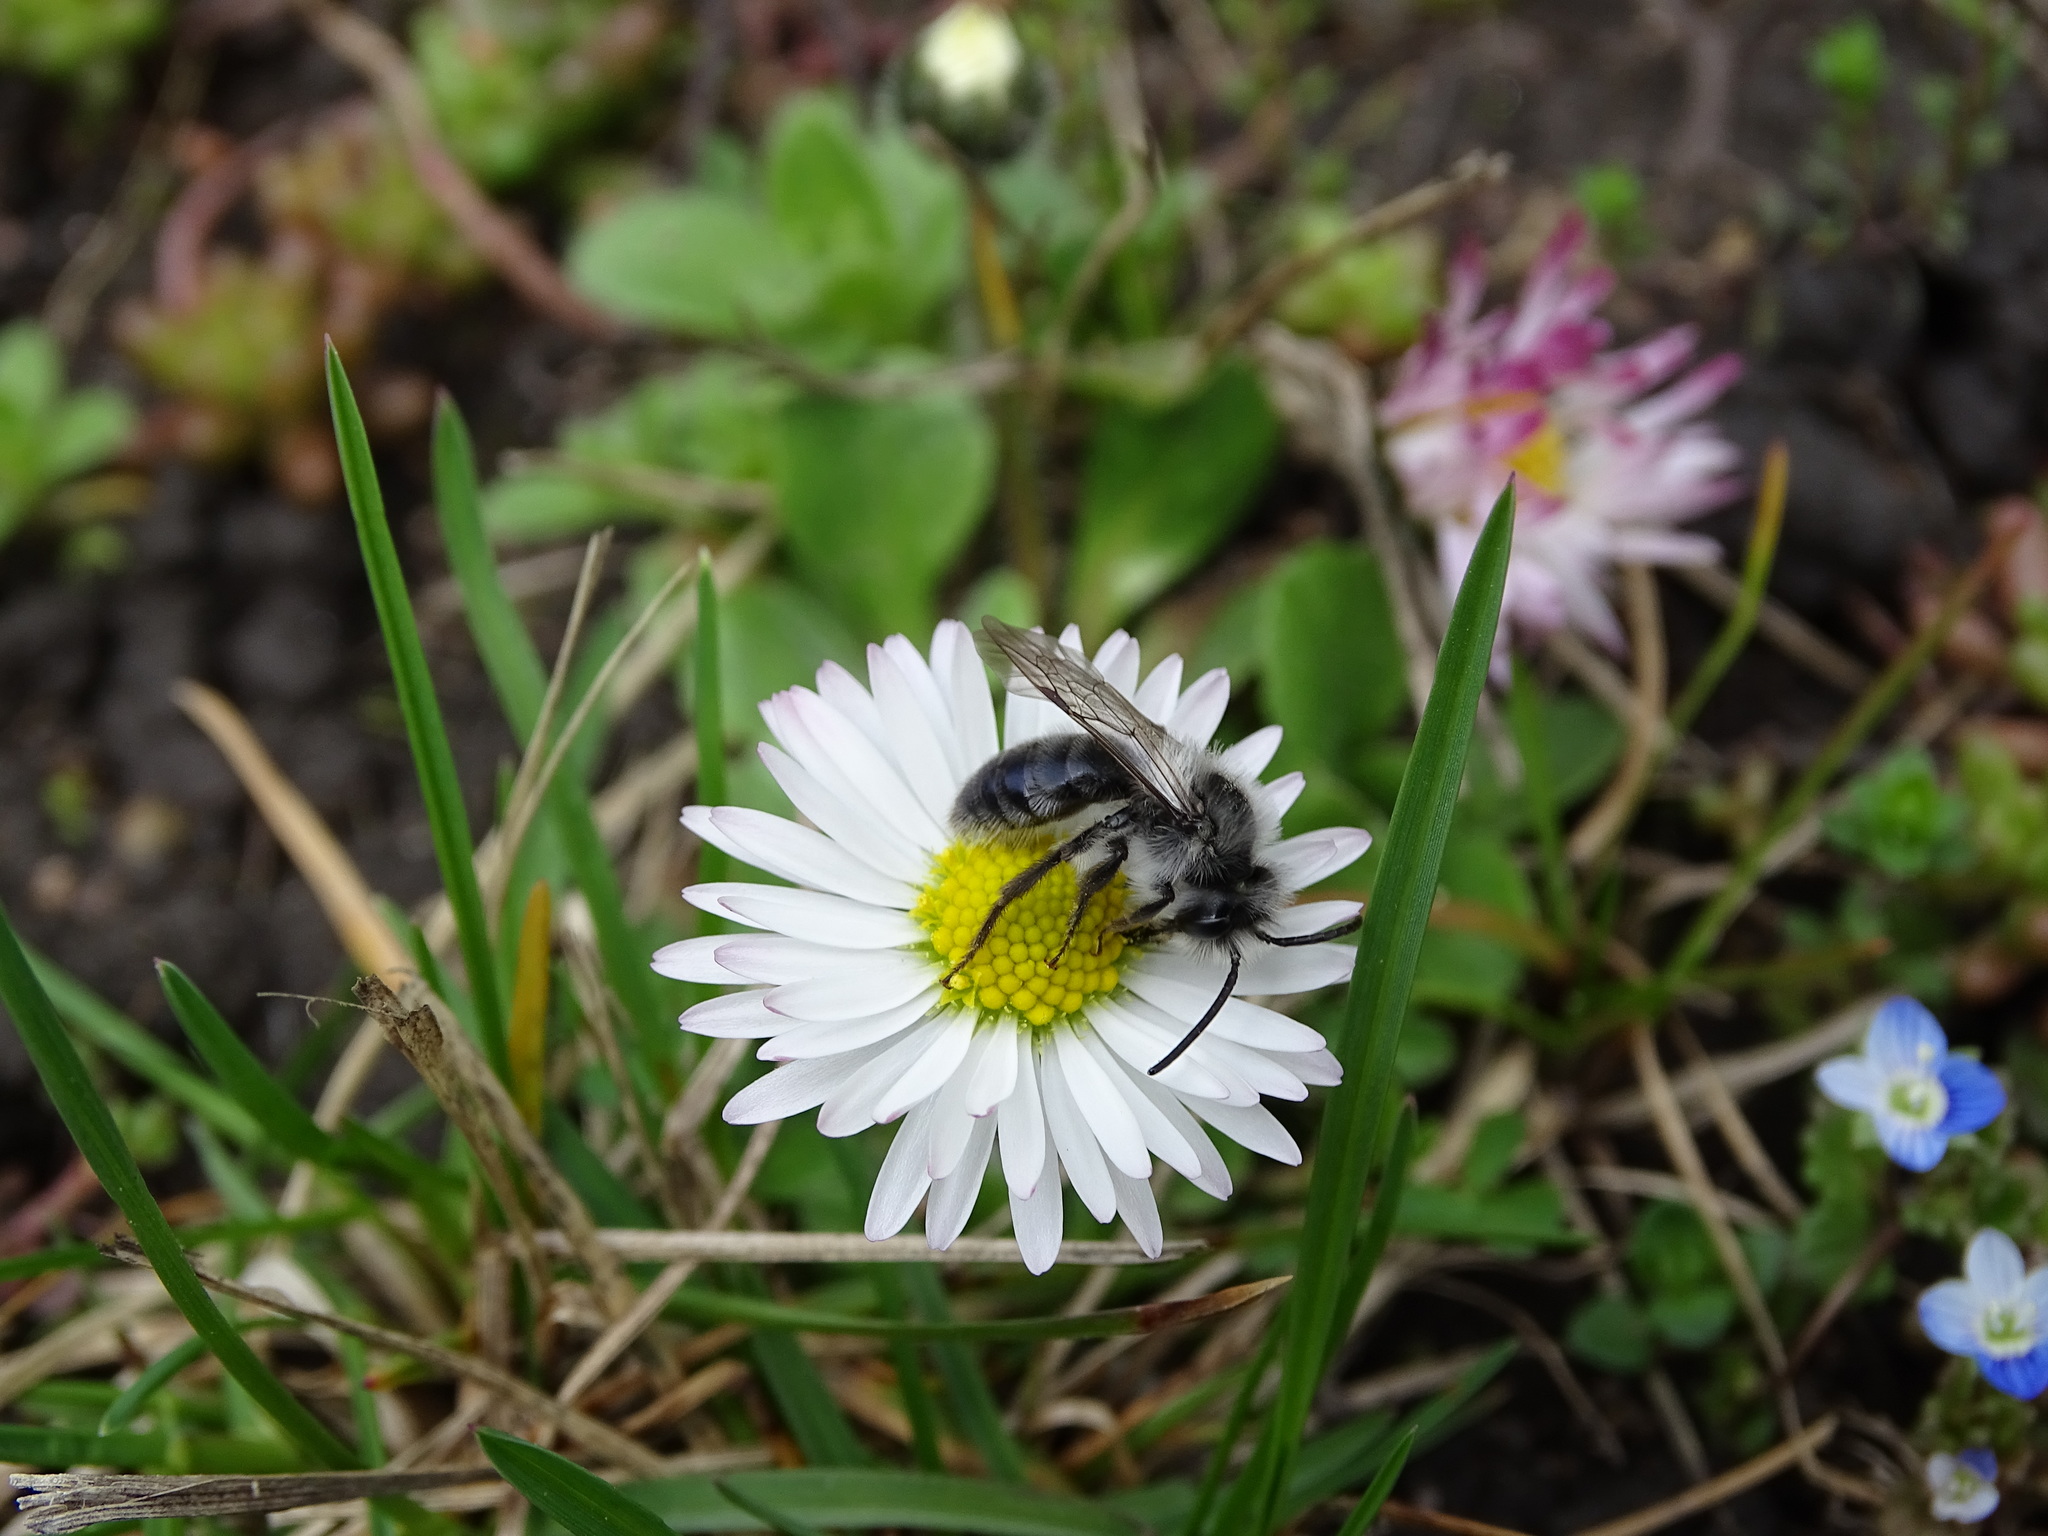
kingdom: Animalia
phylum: Arthropoda
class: Insecta
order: Hymenoptera
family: Andrenidae
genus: Andrena
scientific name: Andrena cineraria
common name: Ashy mining bee
